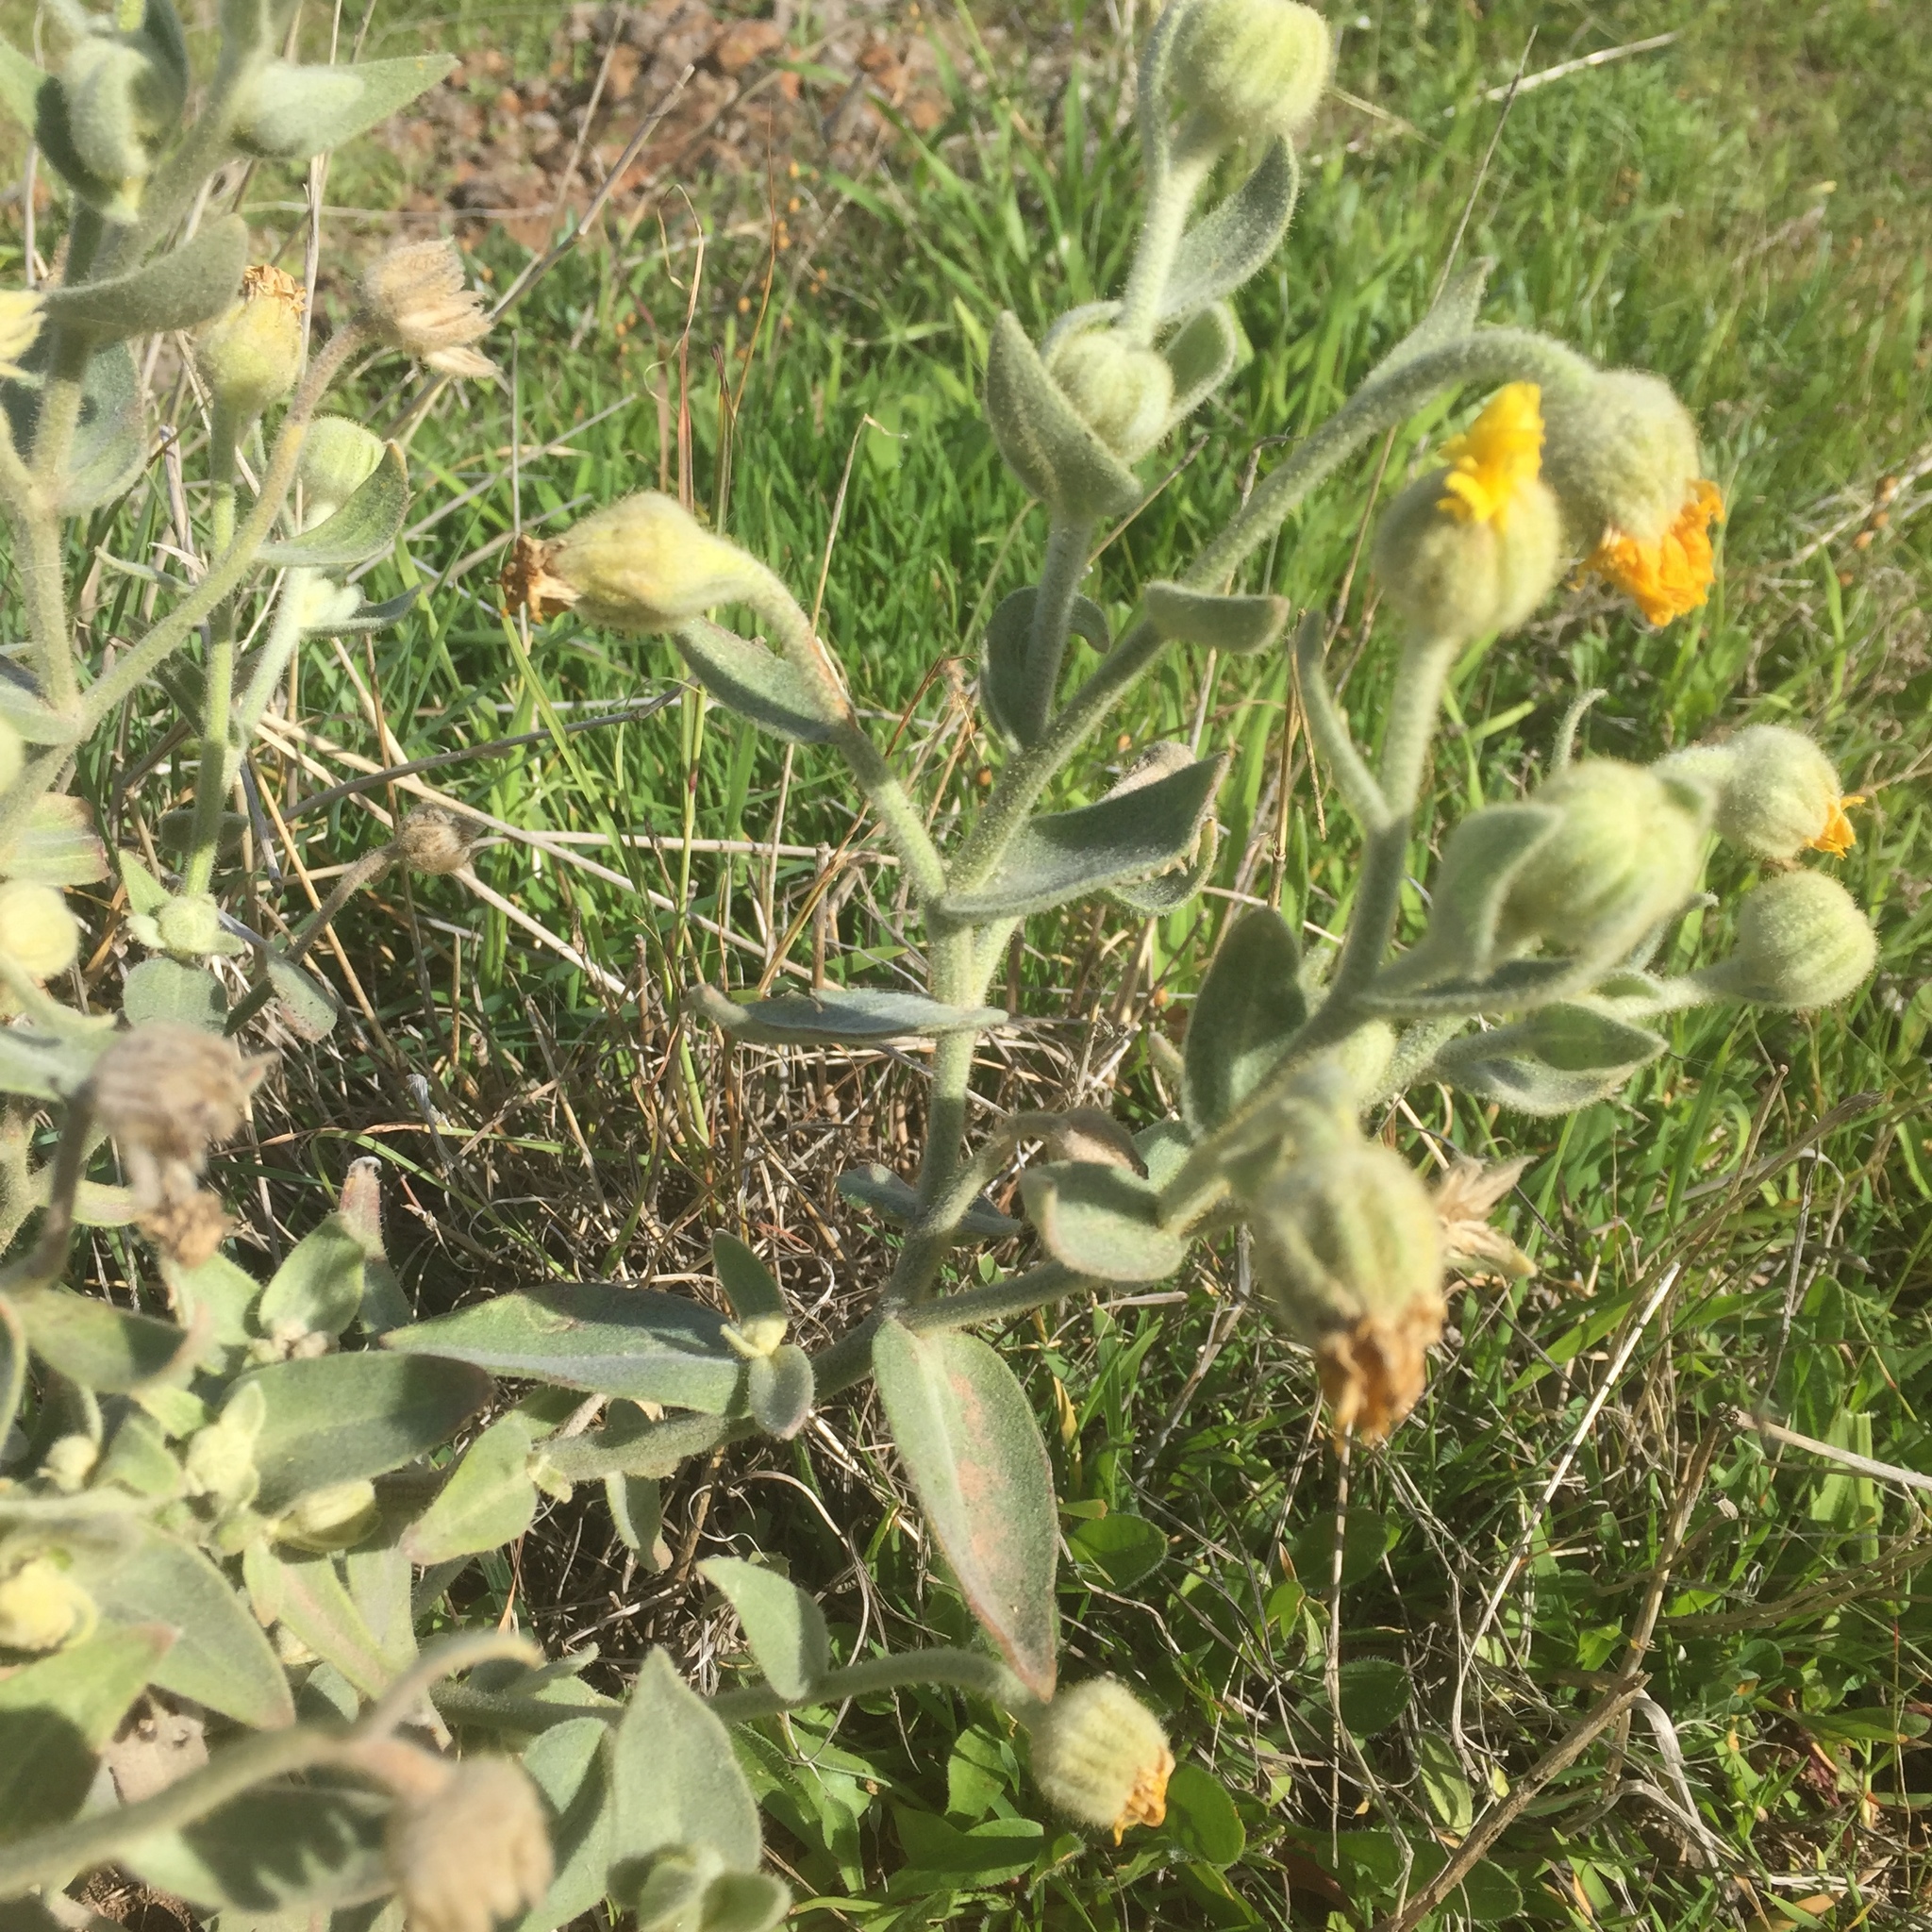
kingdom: Plantae
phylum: Tracheophyta
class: Magnoliopsida
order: Asterales
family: Asteraceae
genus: Andryala
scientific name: Andryala glandulosa
